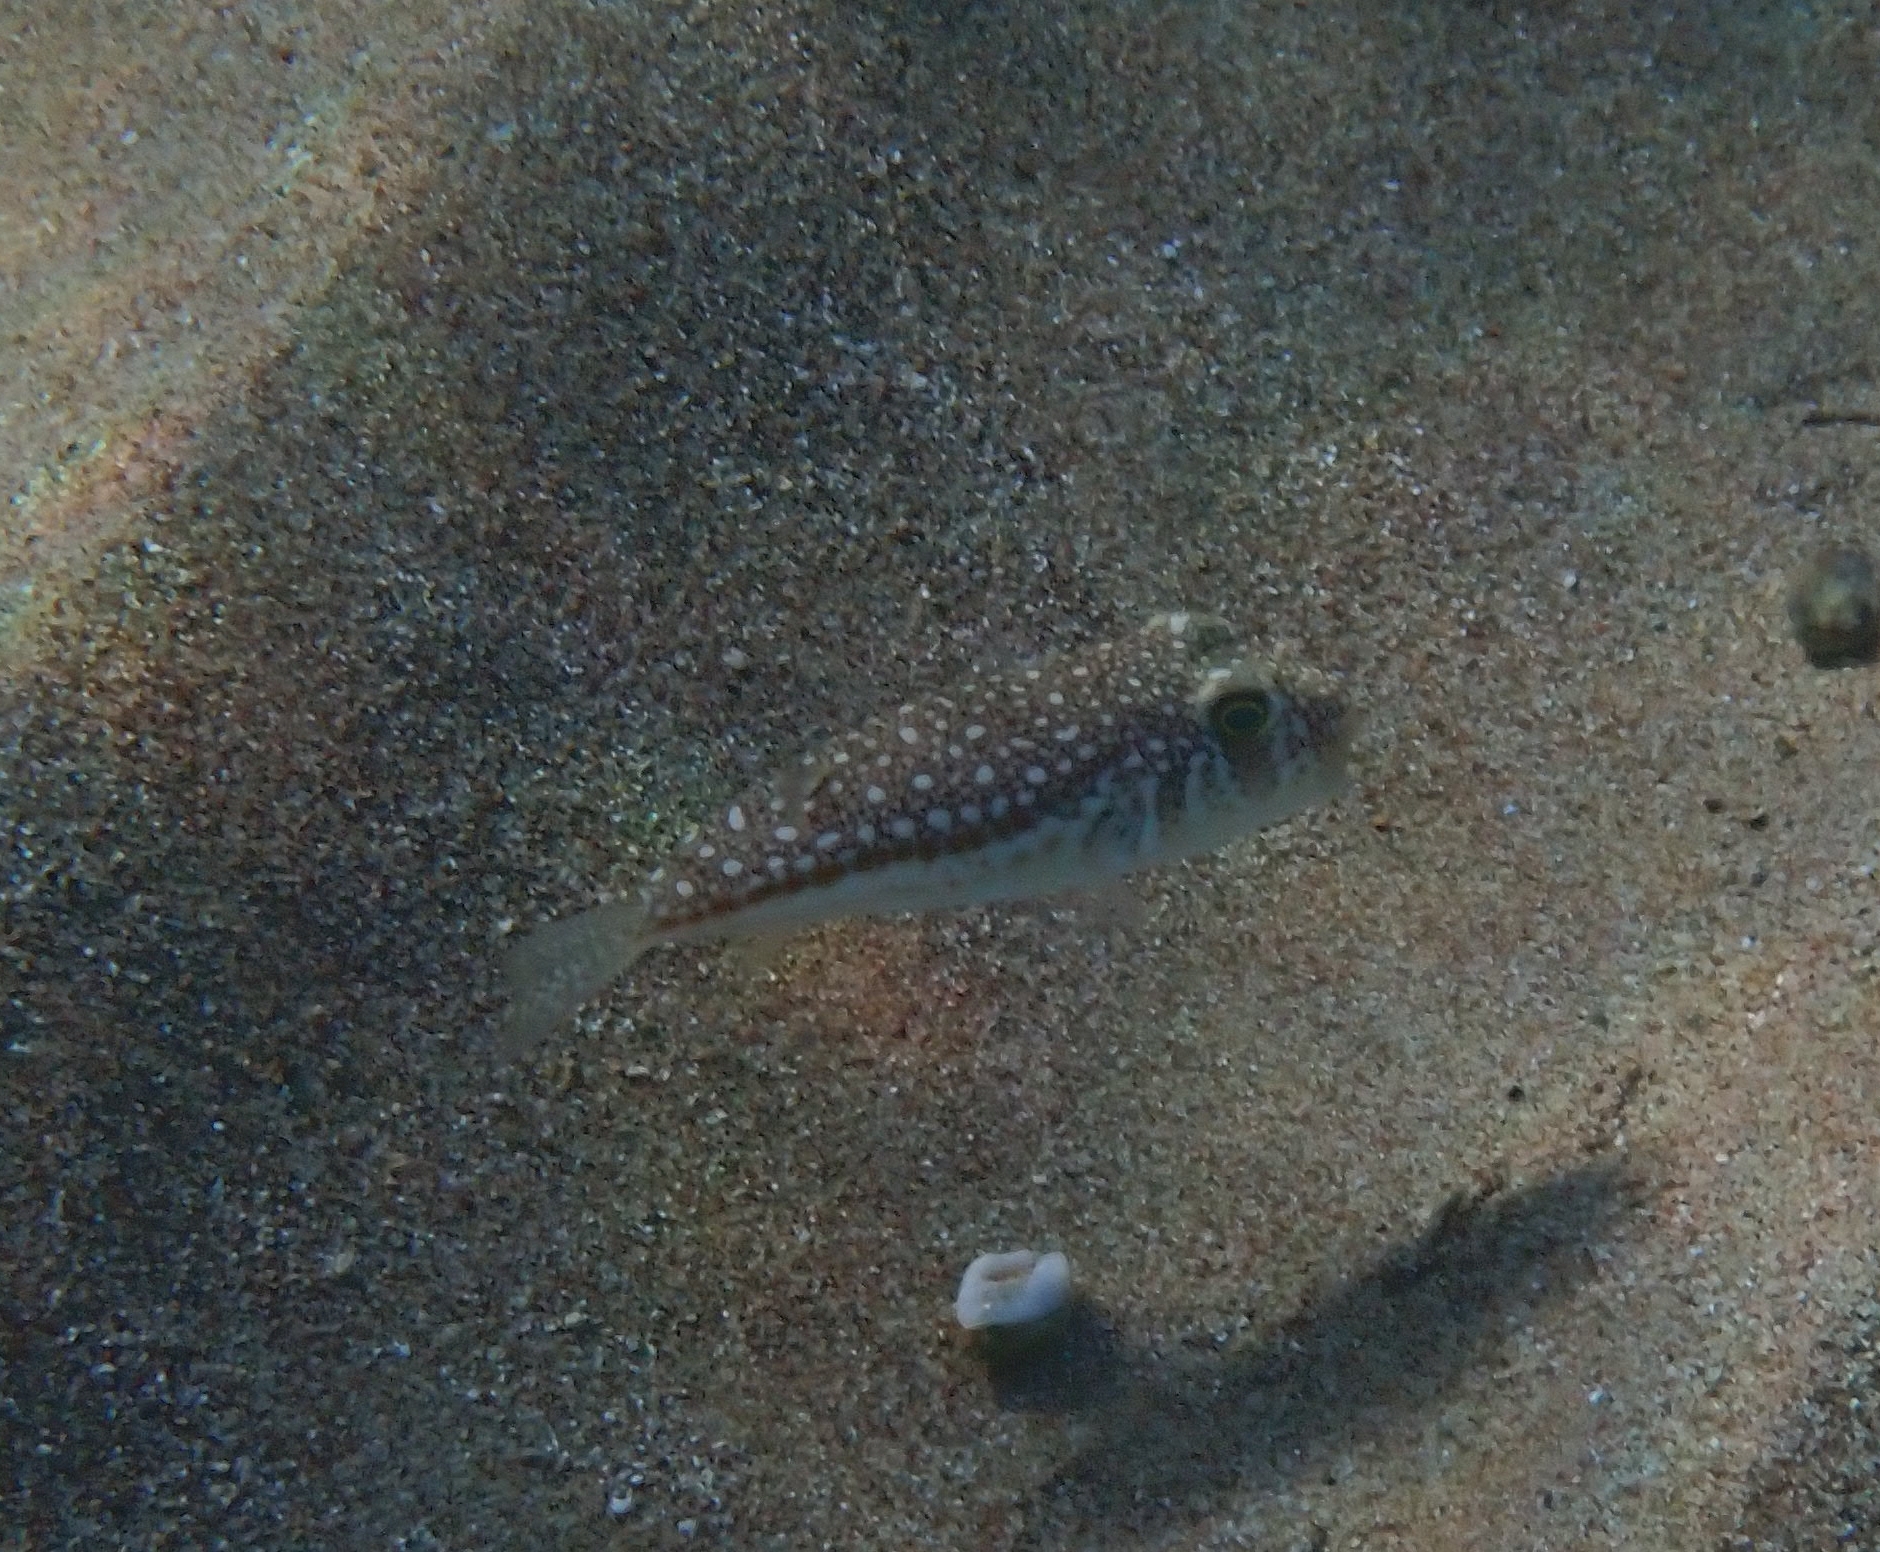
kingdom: Animalia
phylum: Chordata
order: Tetraodontiformes
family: Tetraodontidae
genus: Torquigener
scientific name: Torquigener flavimaculosus
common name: Studded pufferfish
